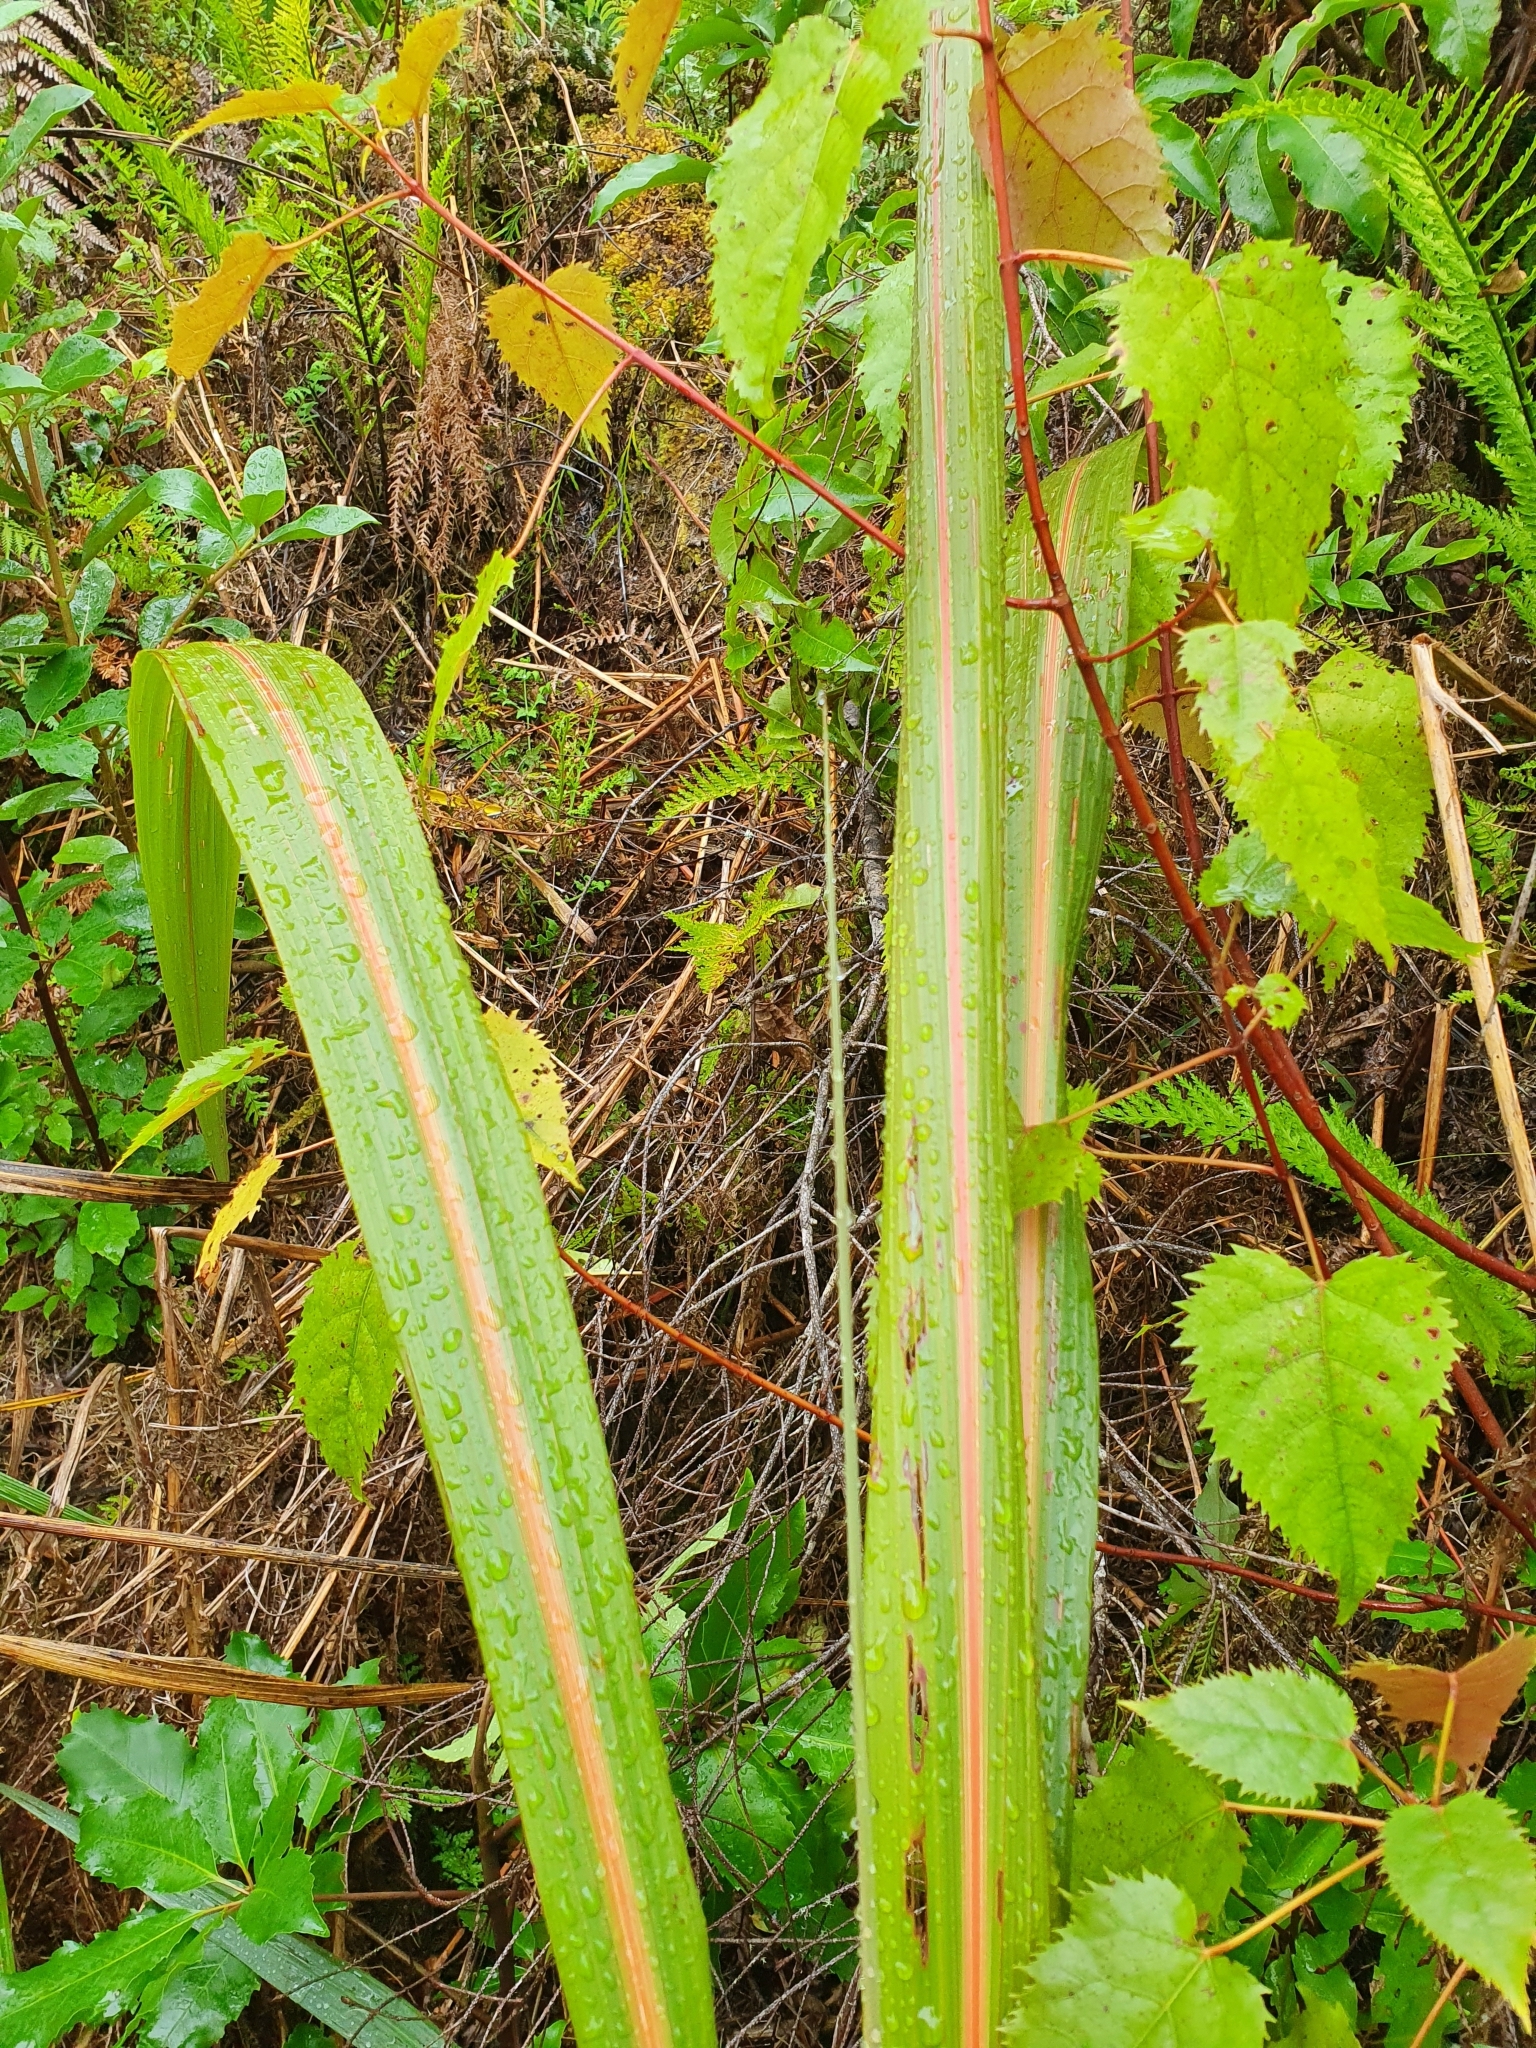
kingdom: Plantae
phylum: Tracheophyta
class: Liliopsida
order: Asparagales
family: Asparagaceae
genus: Cordyline
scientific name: Cordyline banksii
